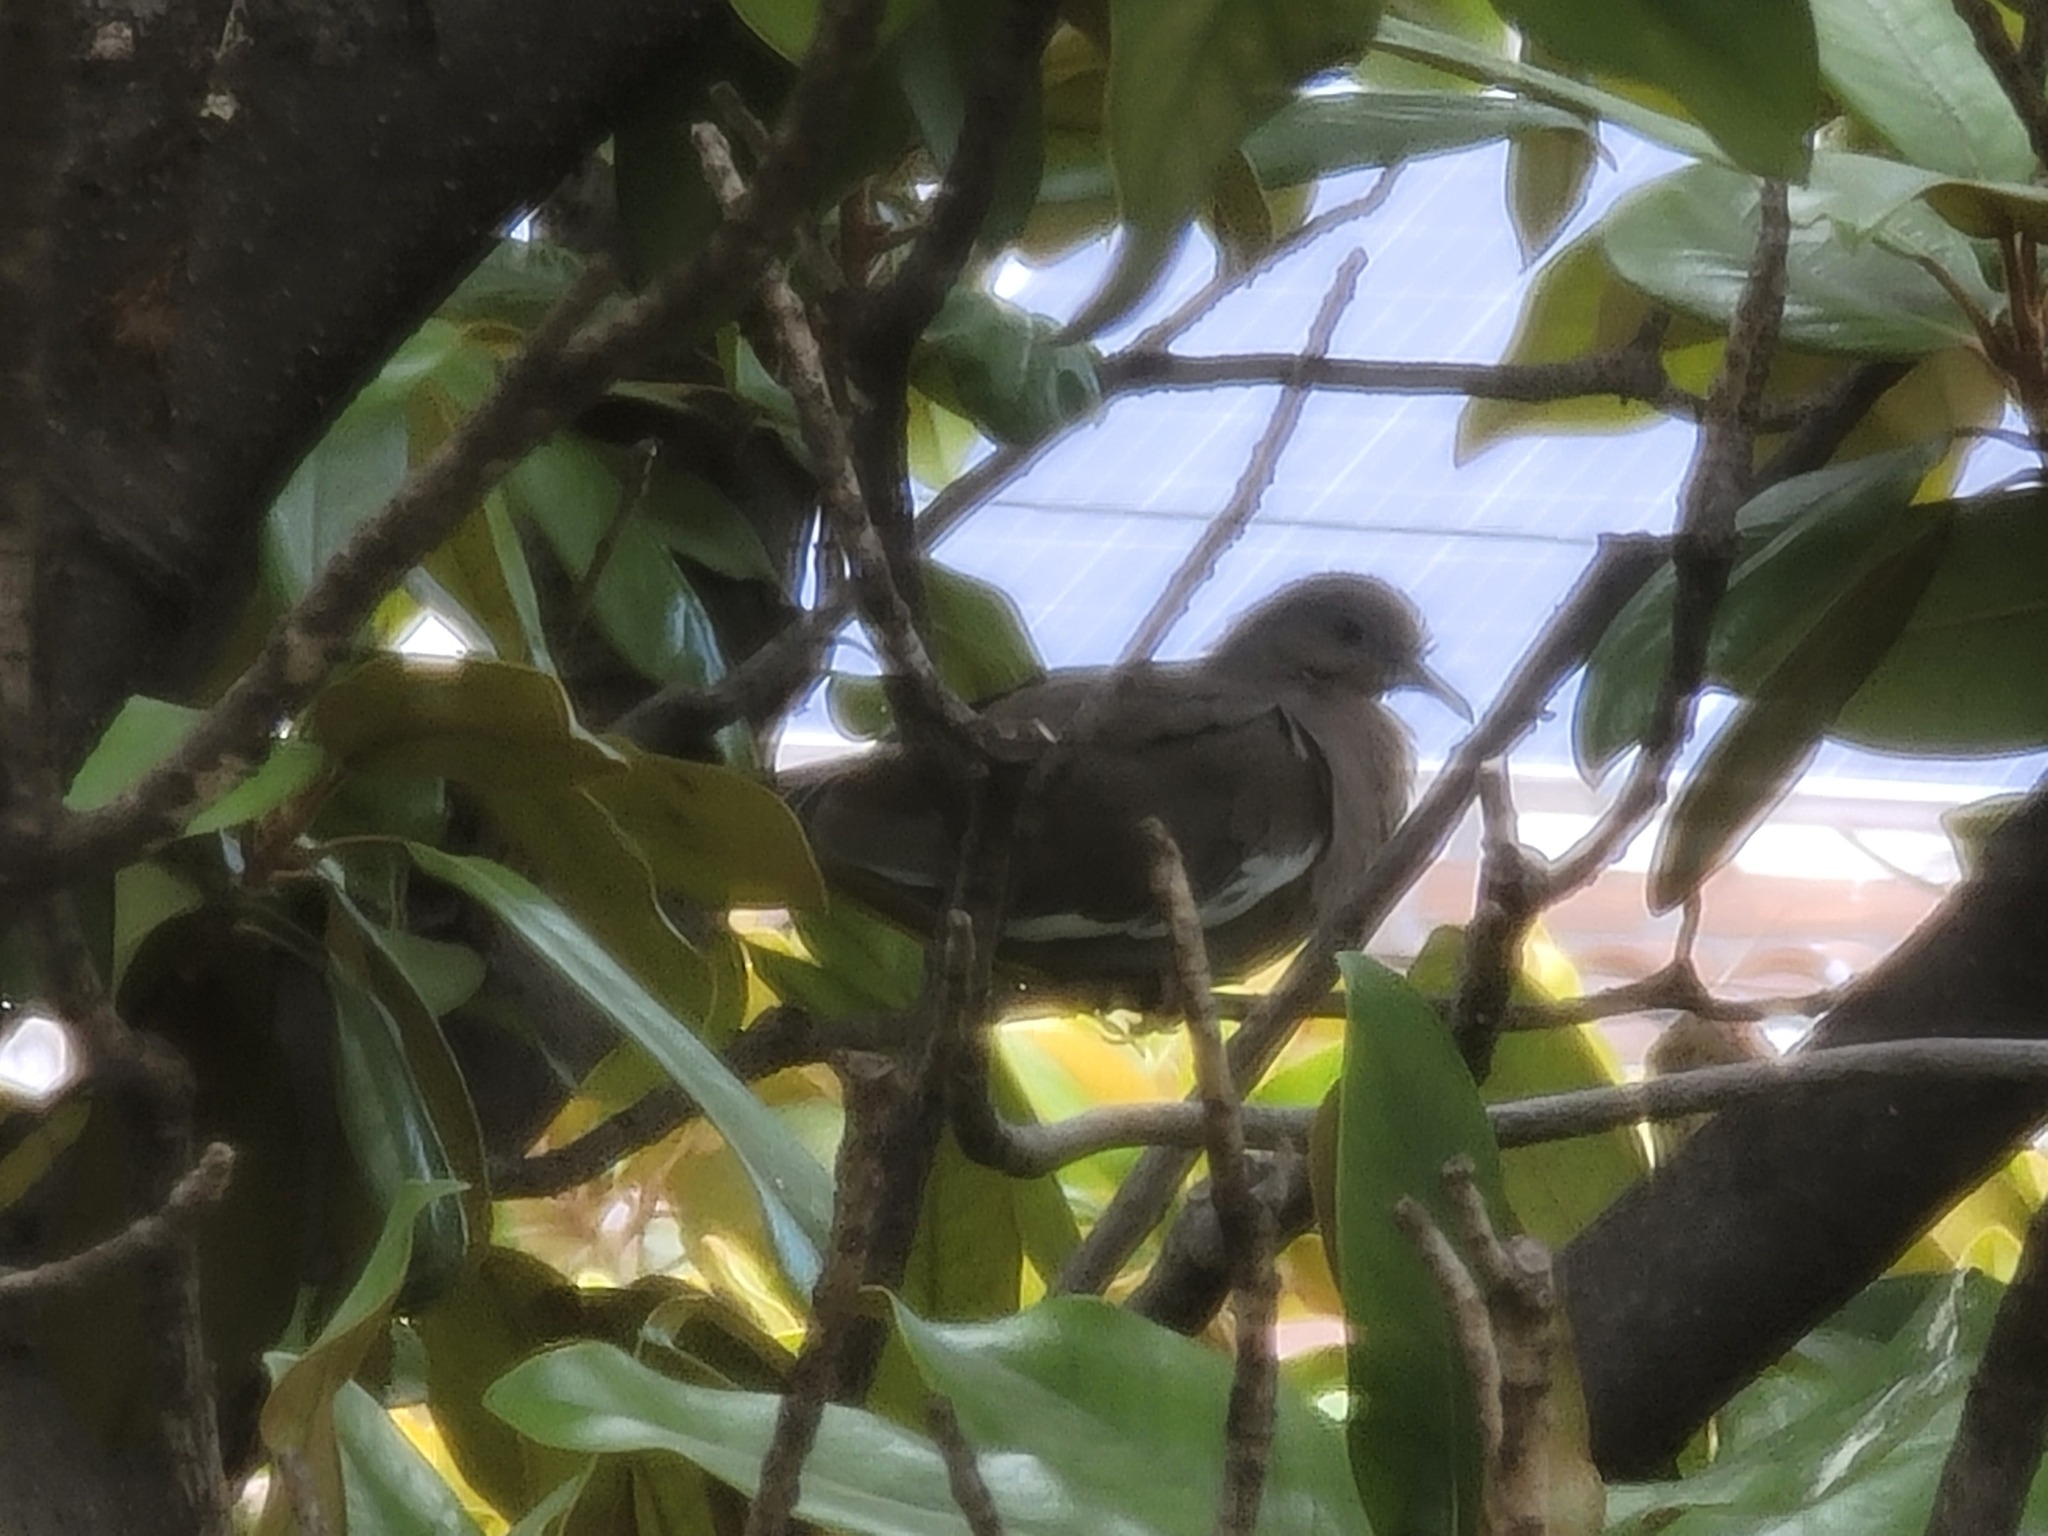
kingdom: Animalia
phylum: Chordata
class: Aves
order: Columbiformes
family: Columbidae
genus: Zenaida
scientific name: Zenaida asiatica
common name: White-winged dove
